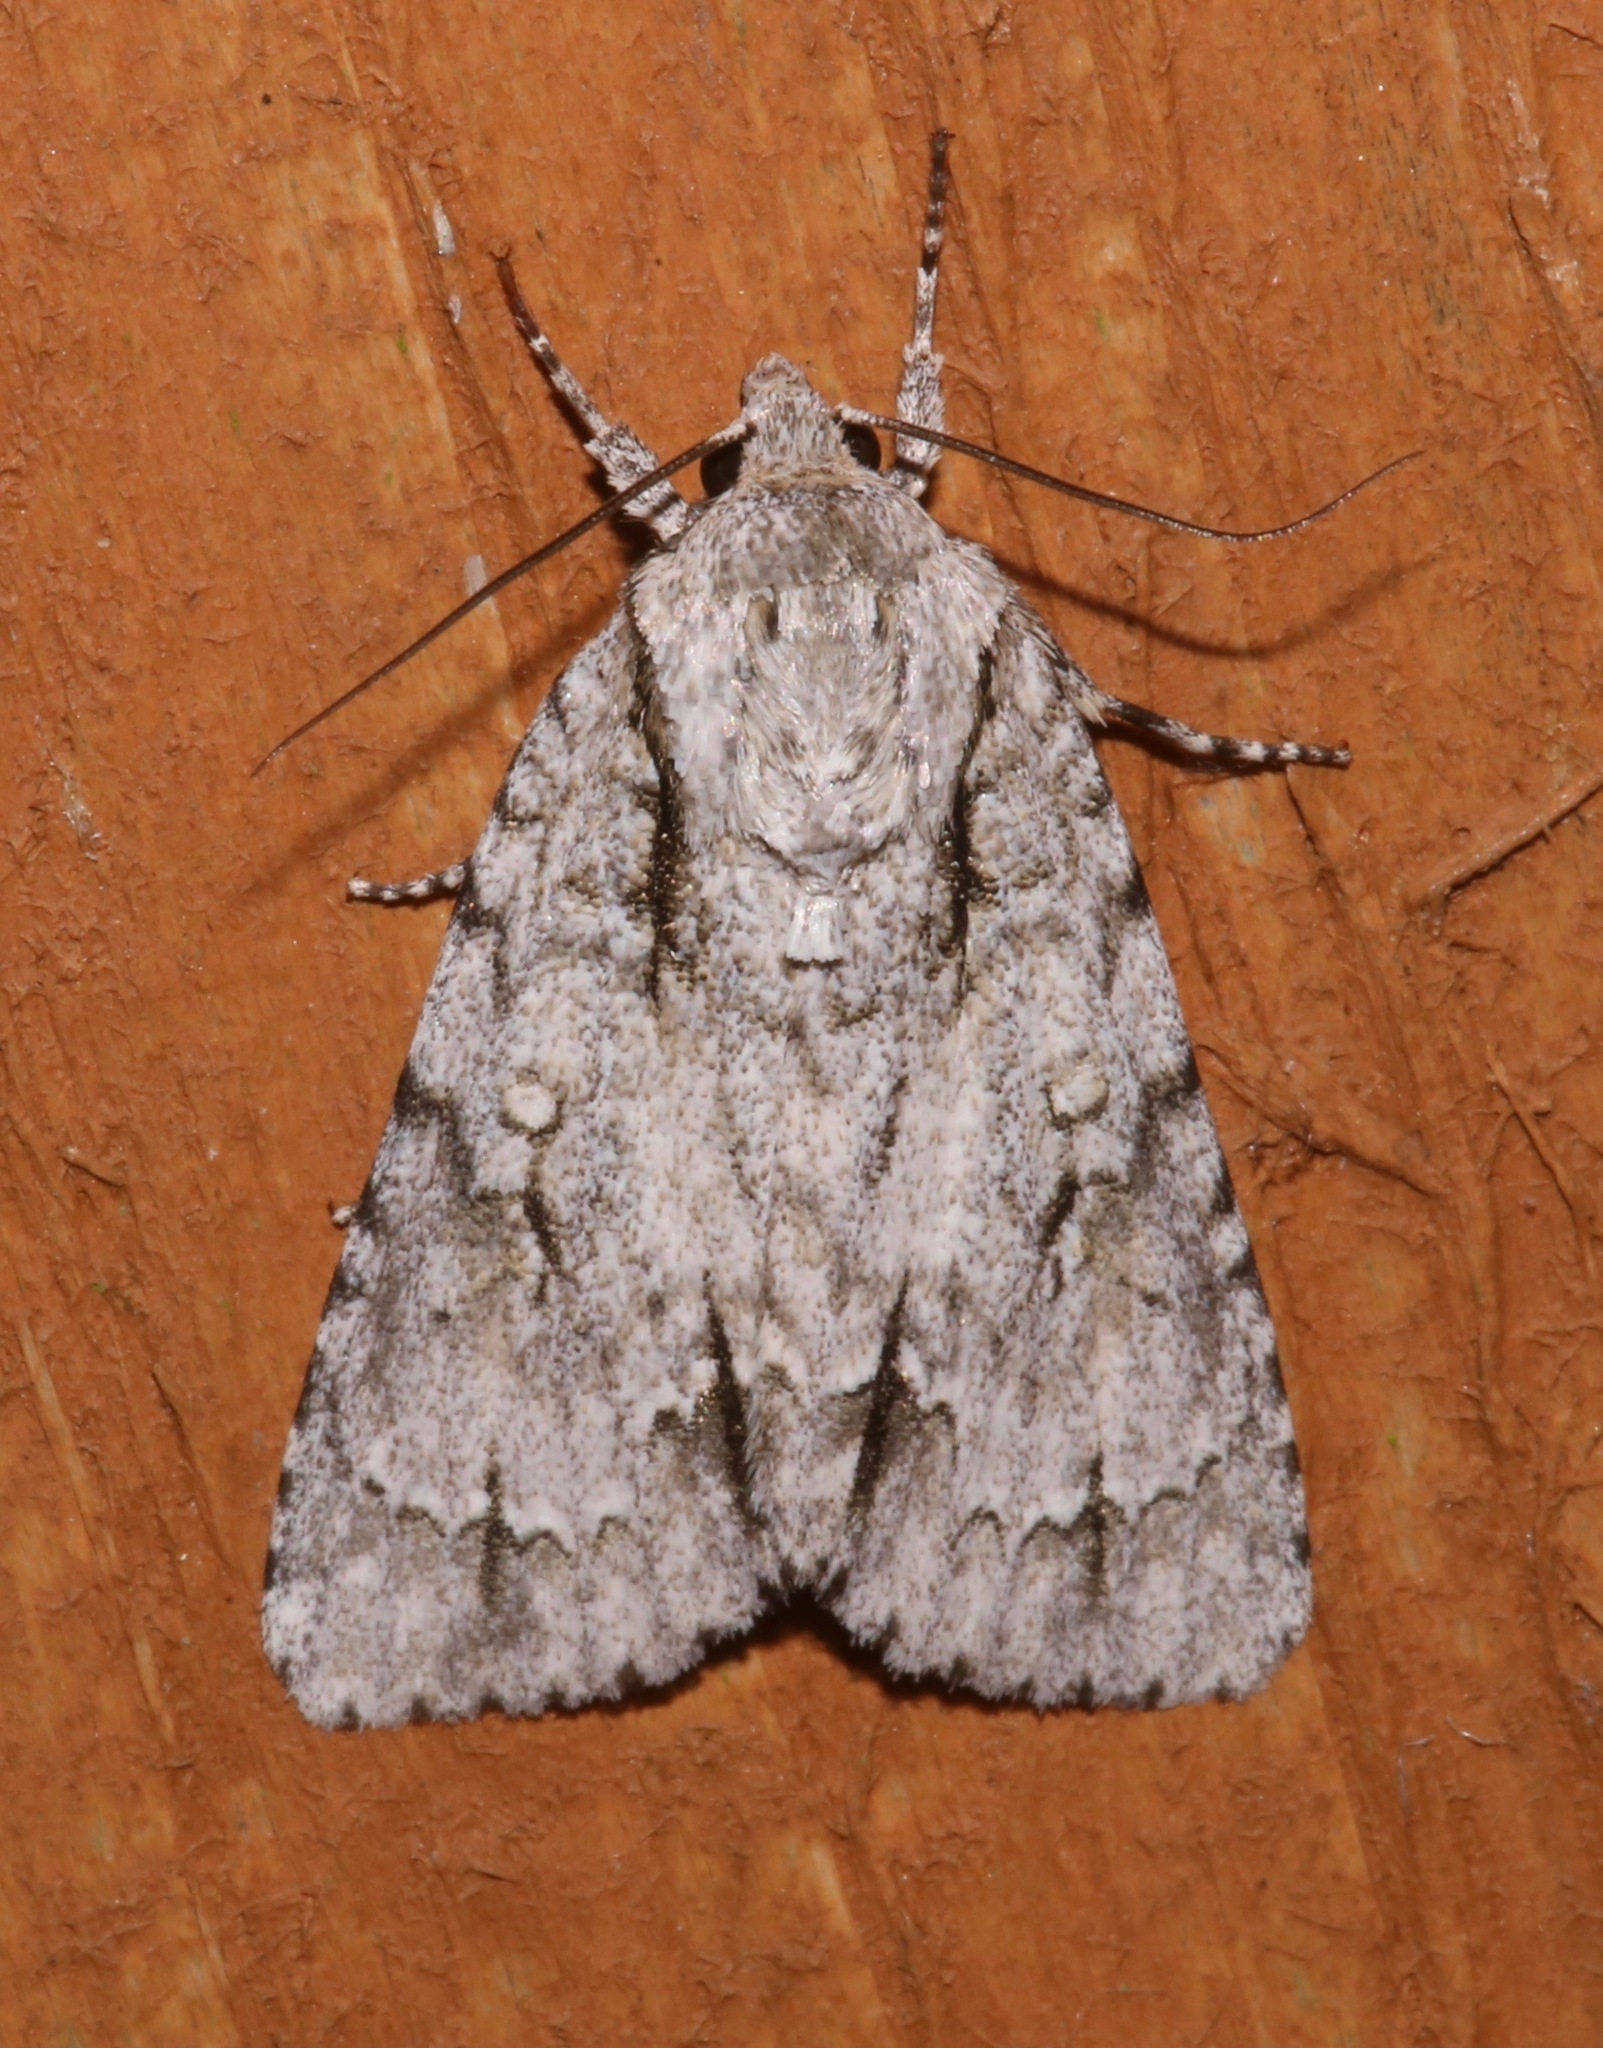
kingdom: Animalia
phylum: Arthropoda
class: Insecta
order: Lepidoptera
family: Noctuidae
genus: Acronicta
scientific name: Acronicta laetifica
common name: Pleasant dagger
